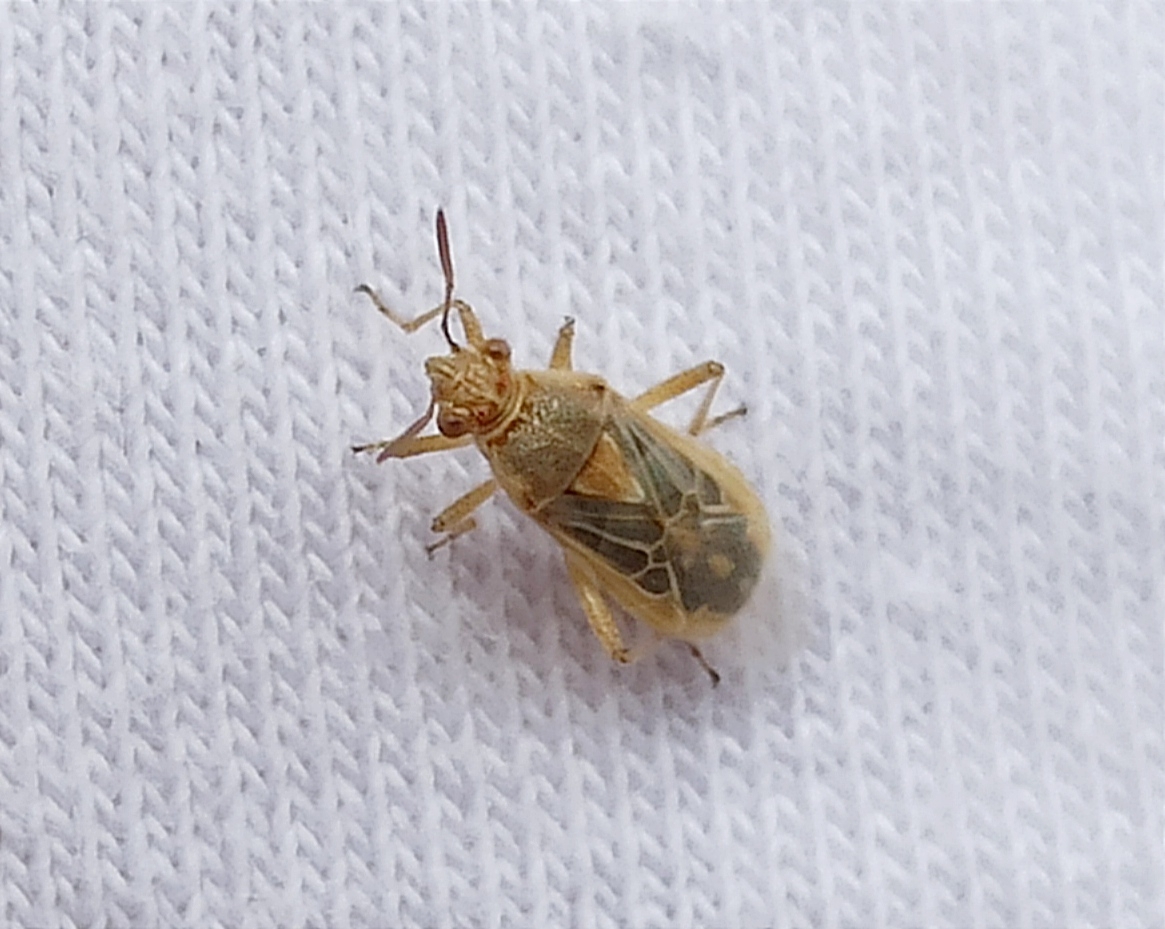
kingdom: Animalia
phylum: Arthropoda
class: Insecta
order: Hemiptera
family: Rhopalidae
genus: Liorhyssus
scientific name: Liorhyssus hyalinus
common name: Scentless plant bug
